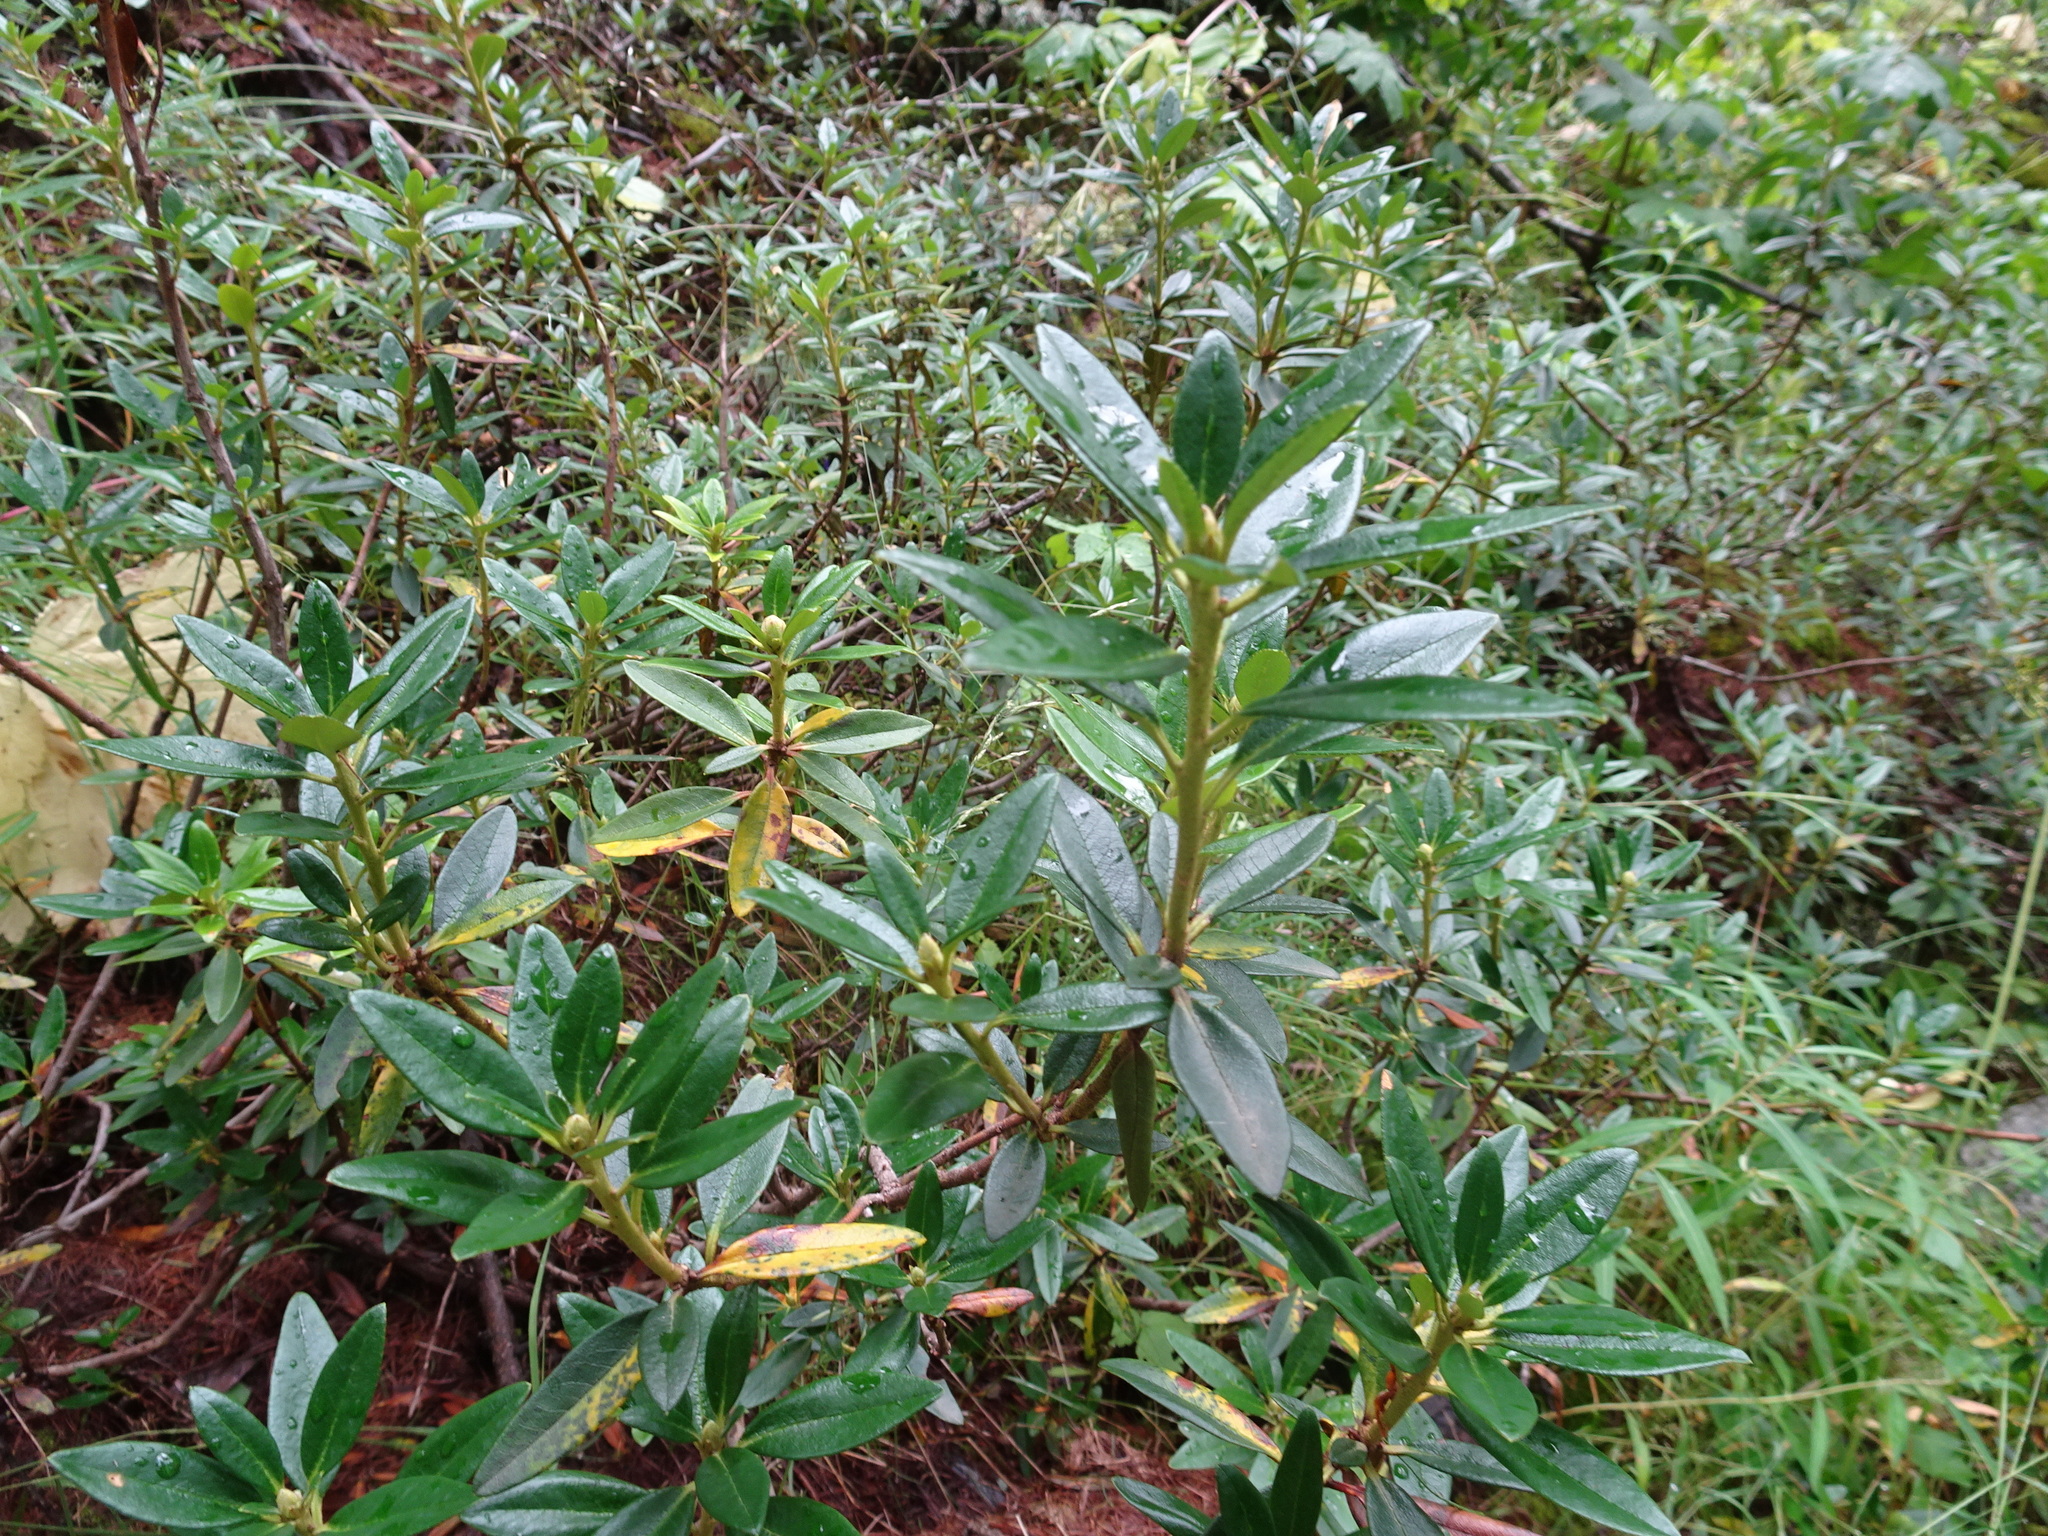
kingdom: Plantae
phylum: Tracheophyta
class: Magnoliopsida
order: Ericales
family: Ericaceae
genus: Rhododendron
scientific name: Rhododendron ferrugineum
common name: Alpenrose
